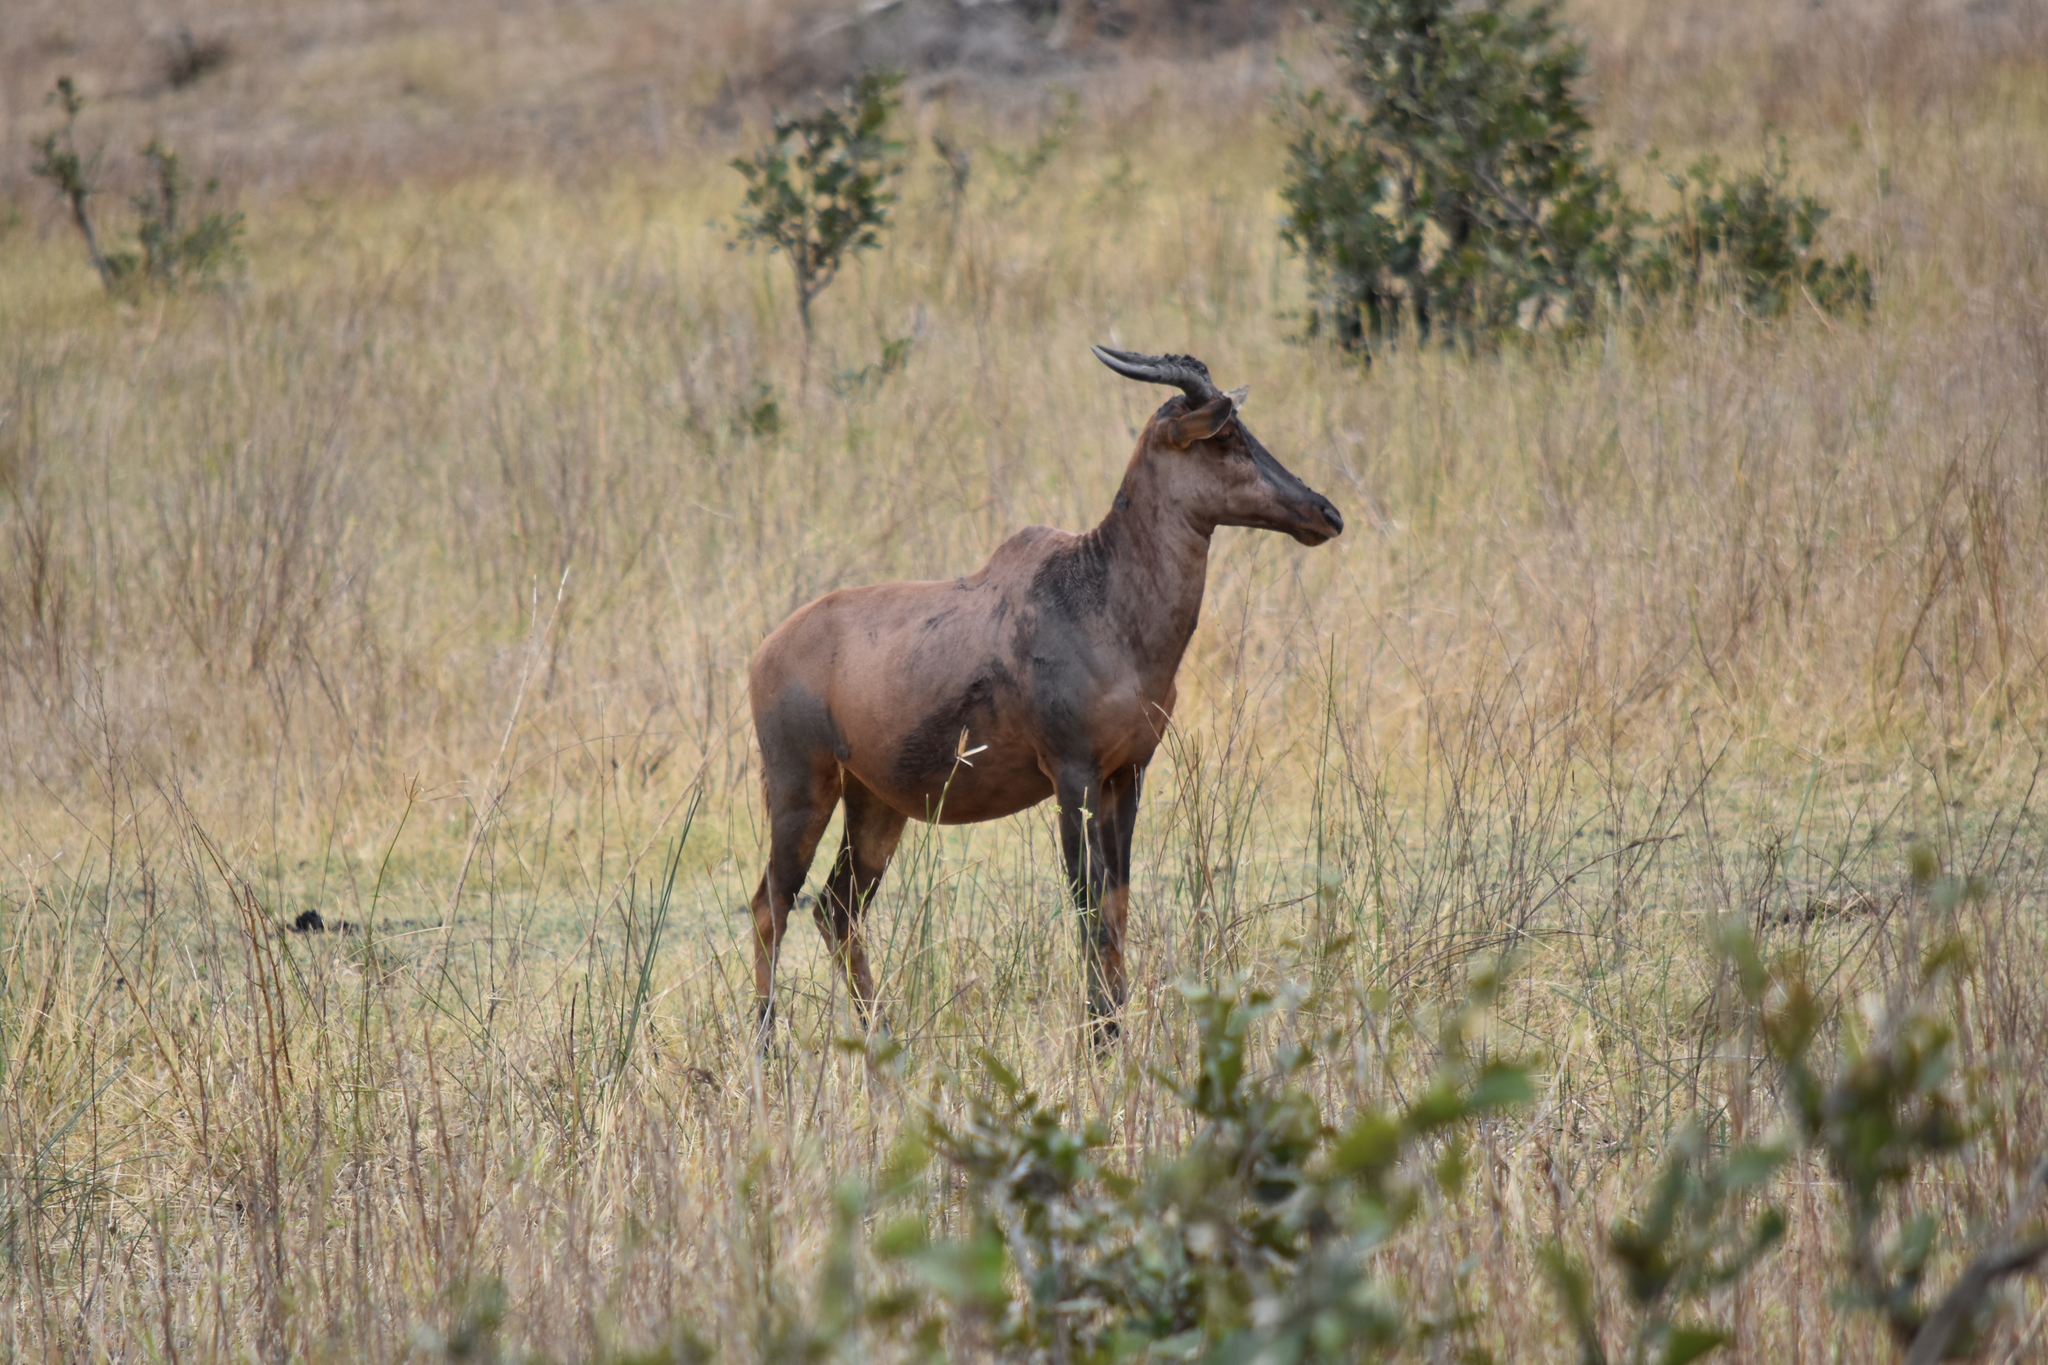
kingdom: Animalia
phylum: Chordata
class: Mammalia
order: Artiodactyla
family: Bovidae
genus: Damaliscus
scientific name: Damaliscus lunatus
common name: Common tsessebe
